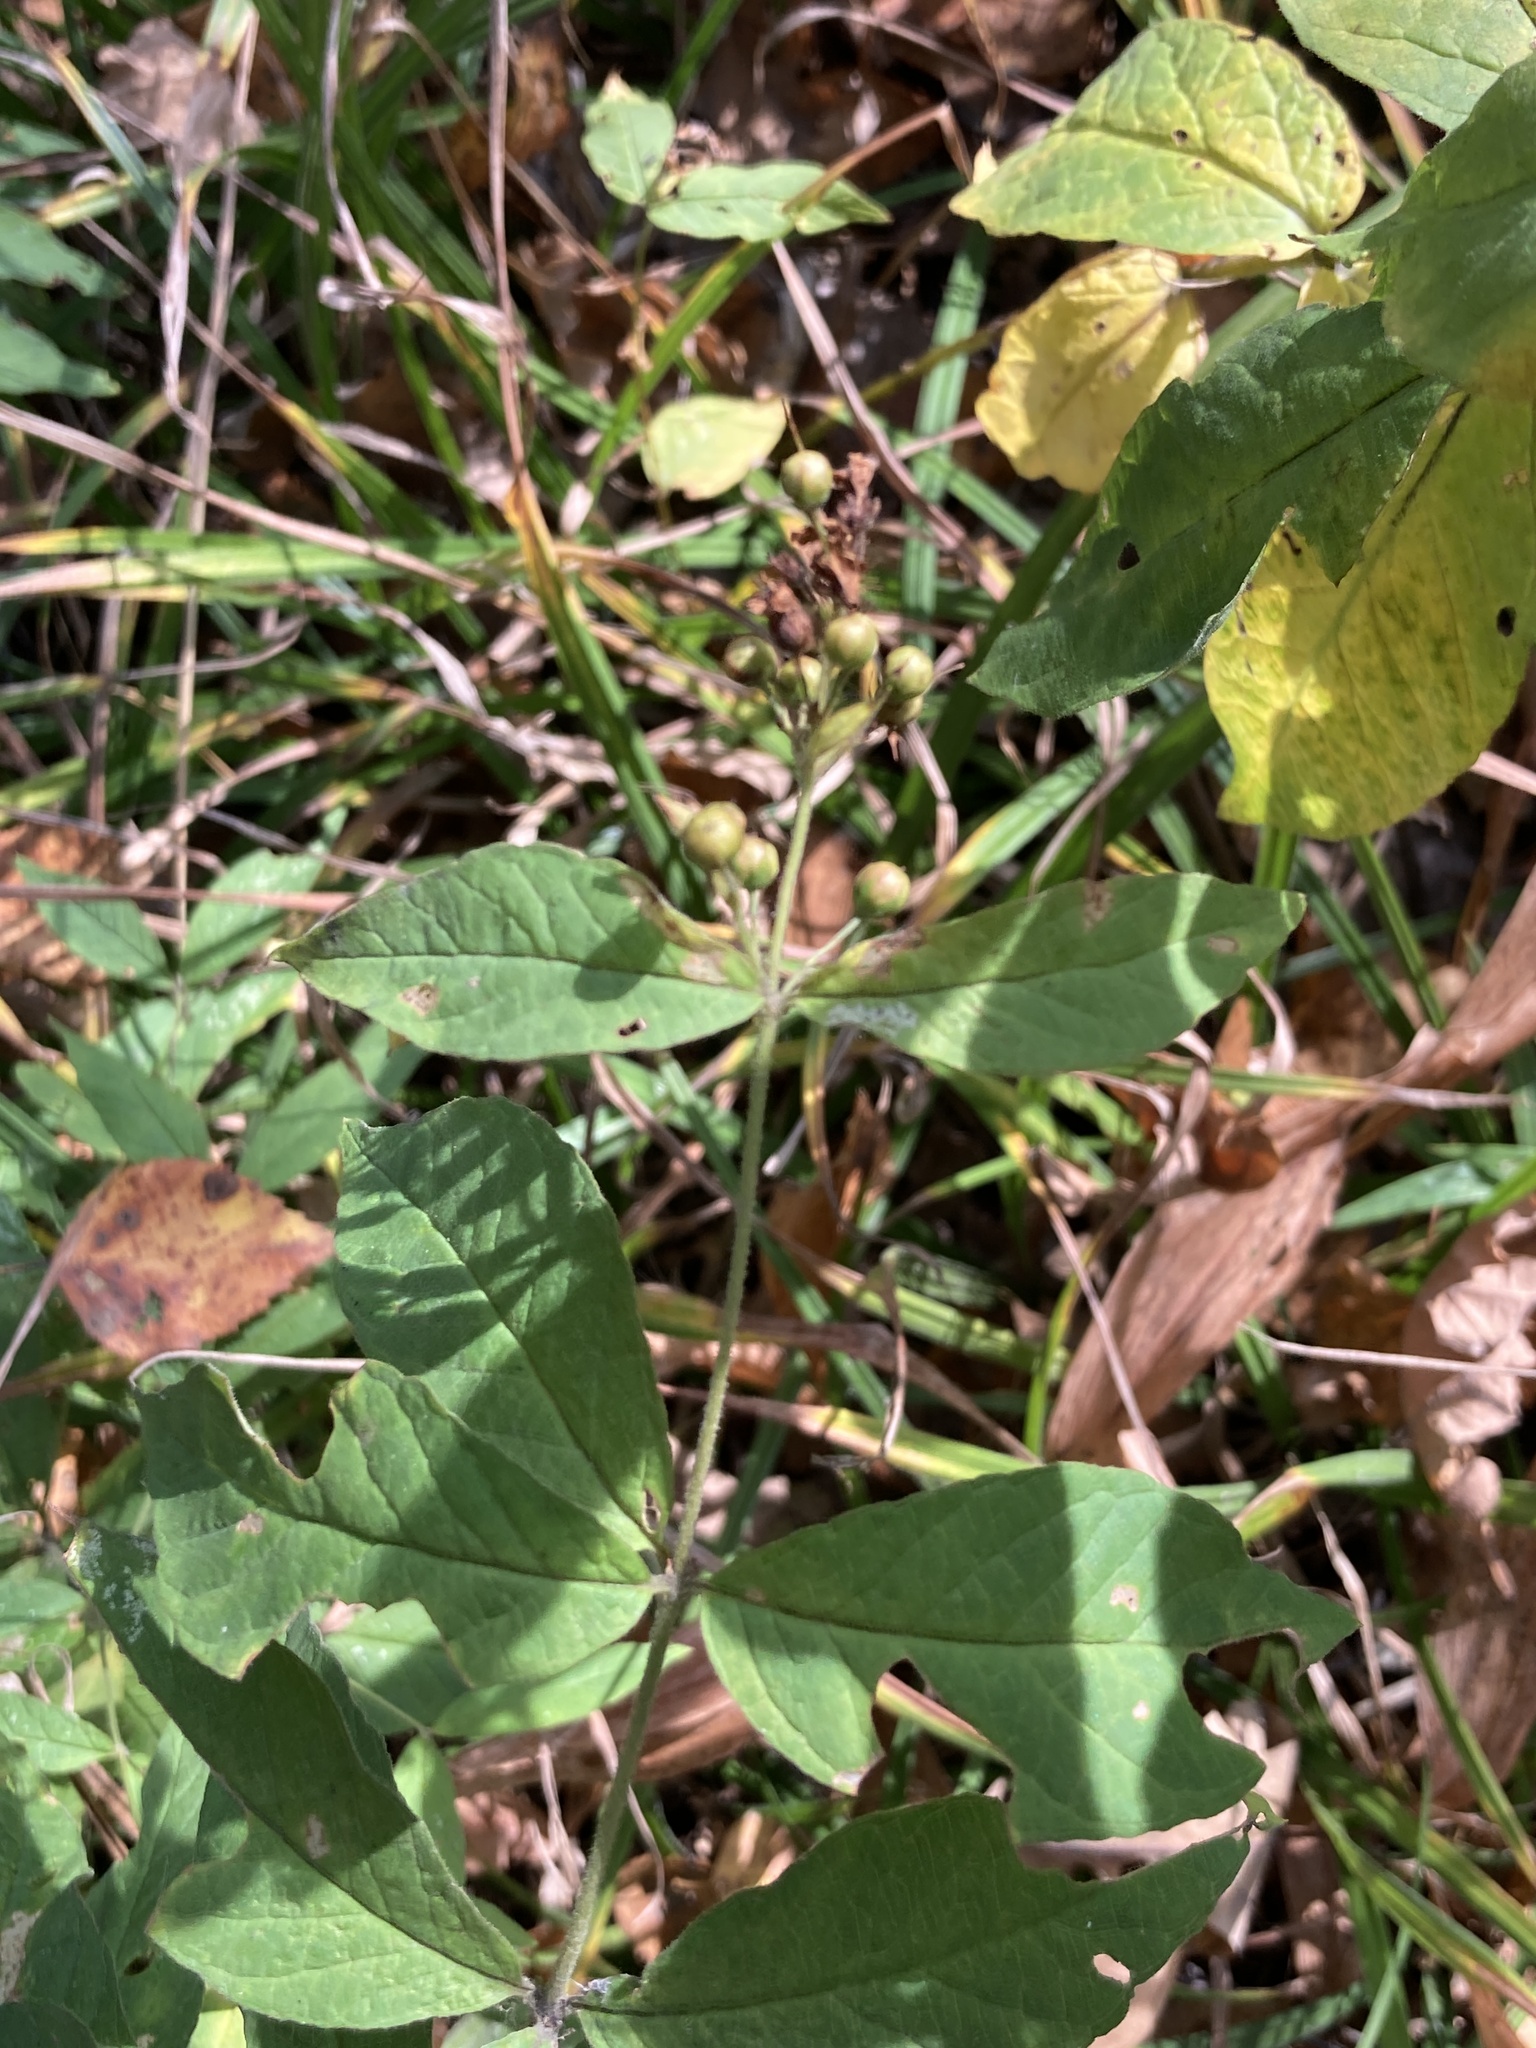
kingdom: Plantae
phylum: Tracheophyta
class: Magnoliopsida
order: Ericales
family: Primulaceae
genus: Lysimachia
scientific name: Lysimachia vulgaris
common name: Yellow loosestrife
